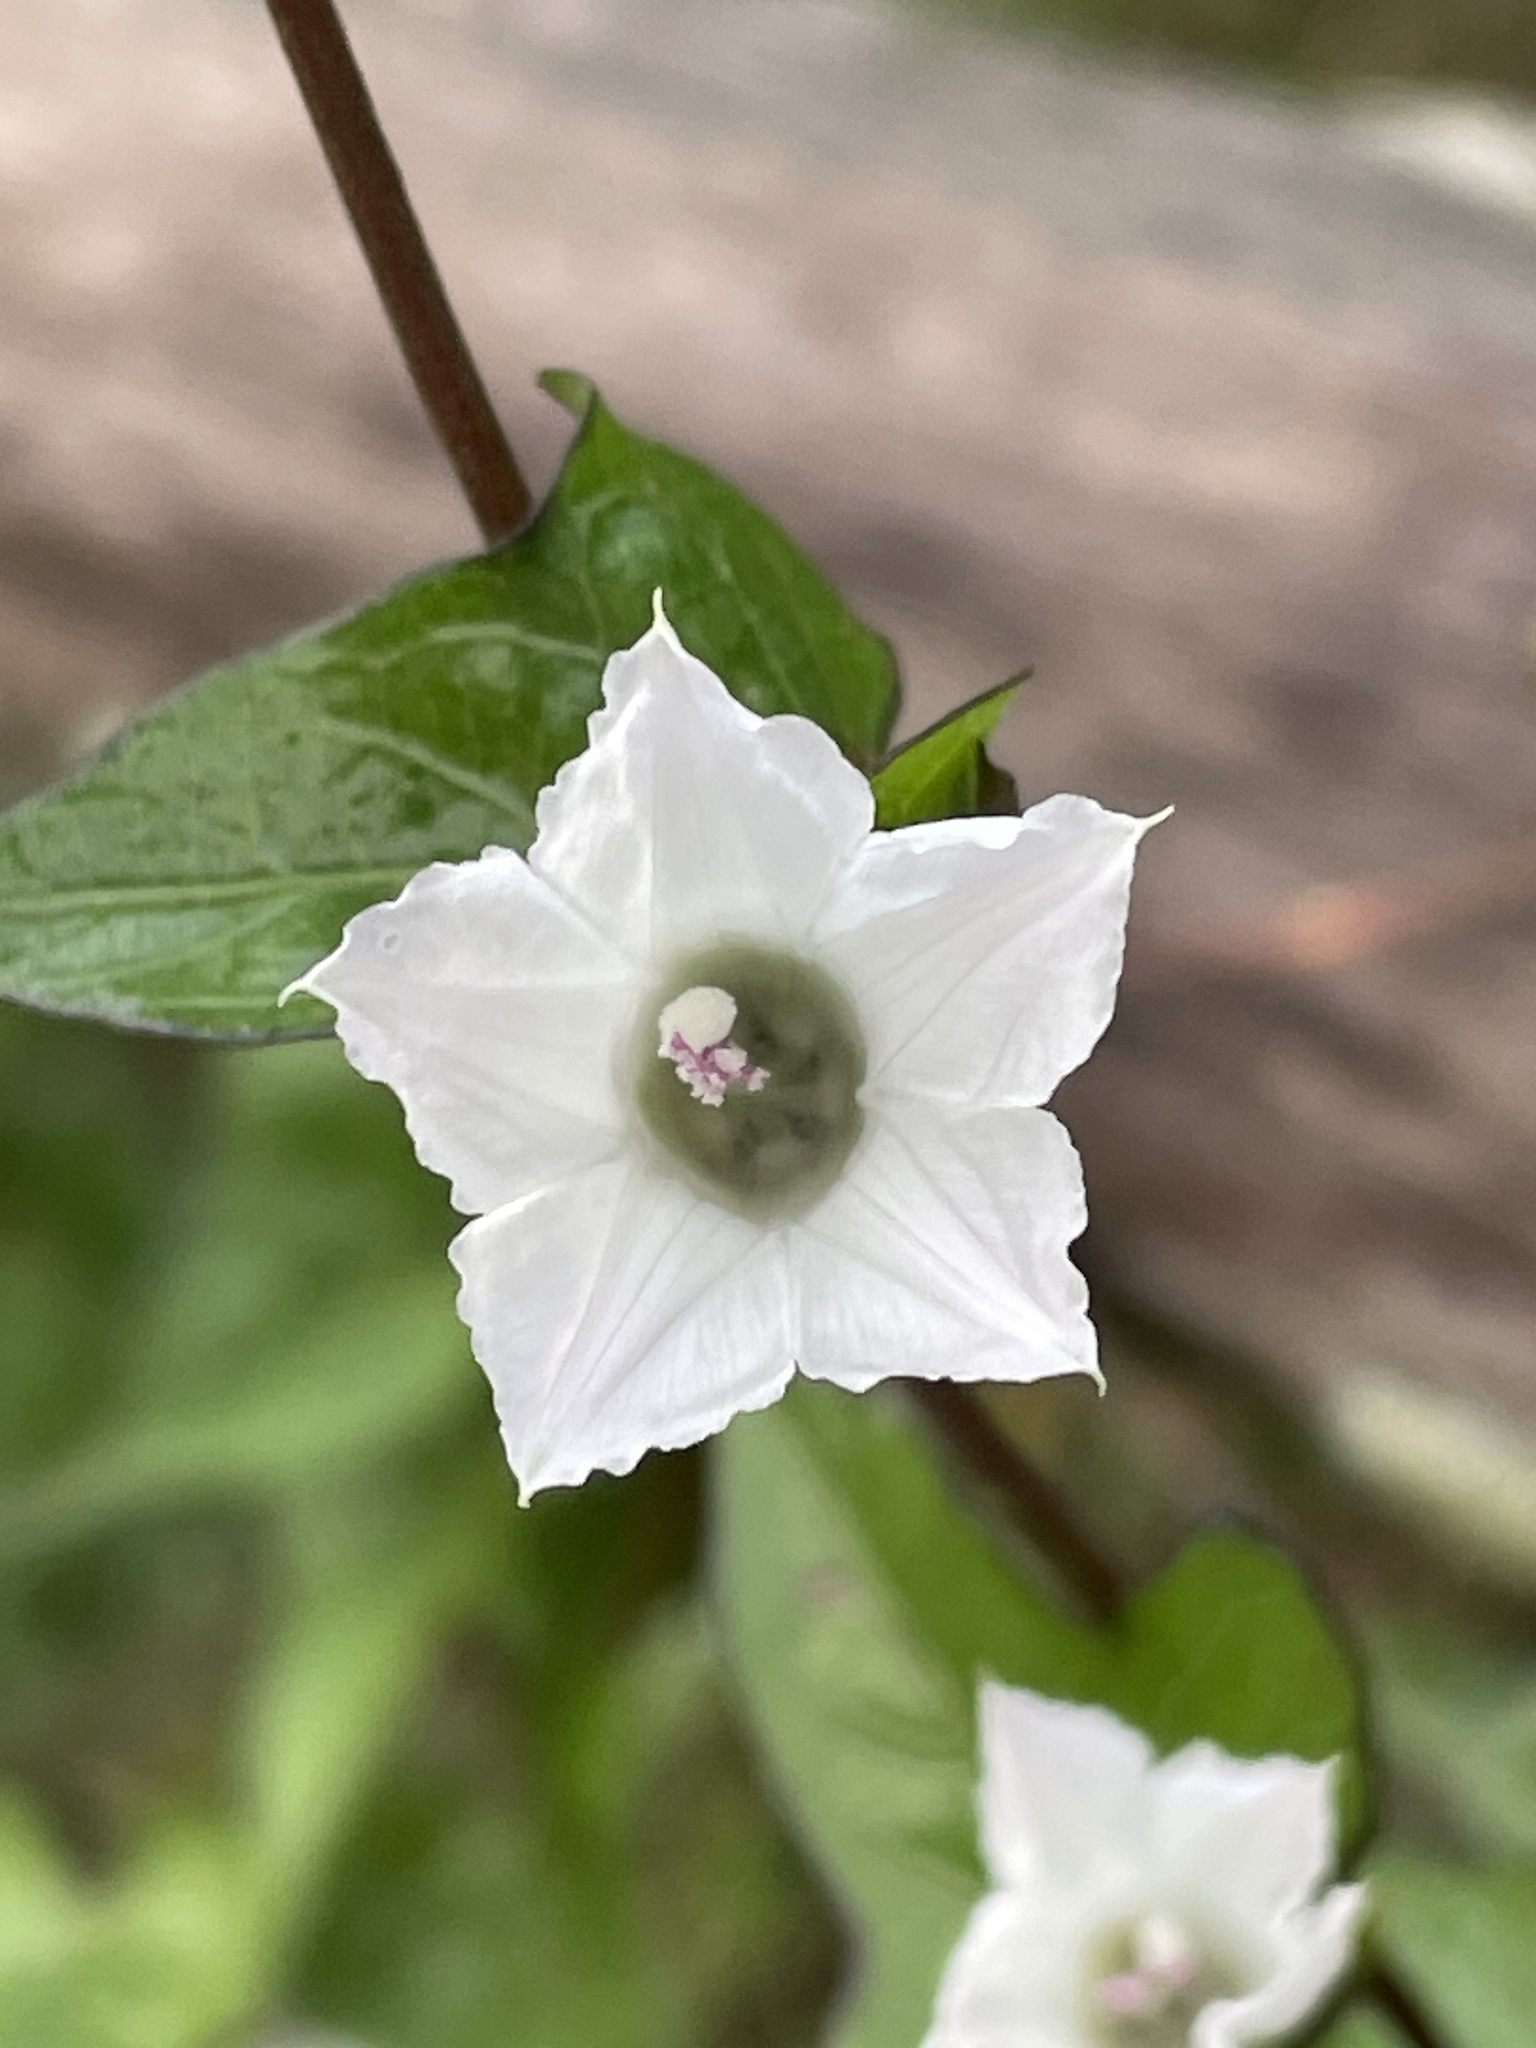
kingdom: Plantae
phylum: Tracheophyta
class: Magnoliopsida
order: Solanales
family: Convolvulaceae
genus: Ipomoea
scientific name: Ipomoea lacunosa
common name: White morning-glory
